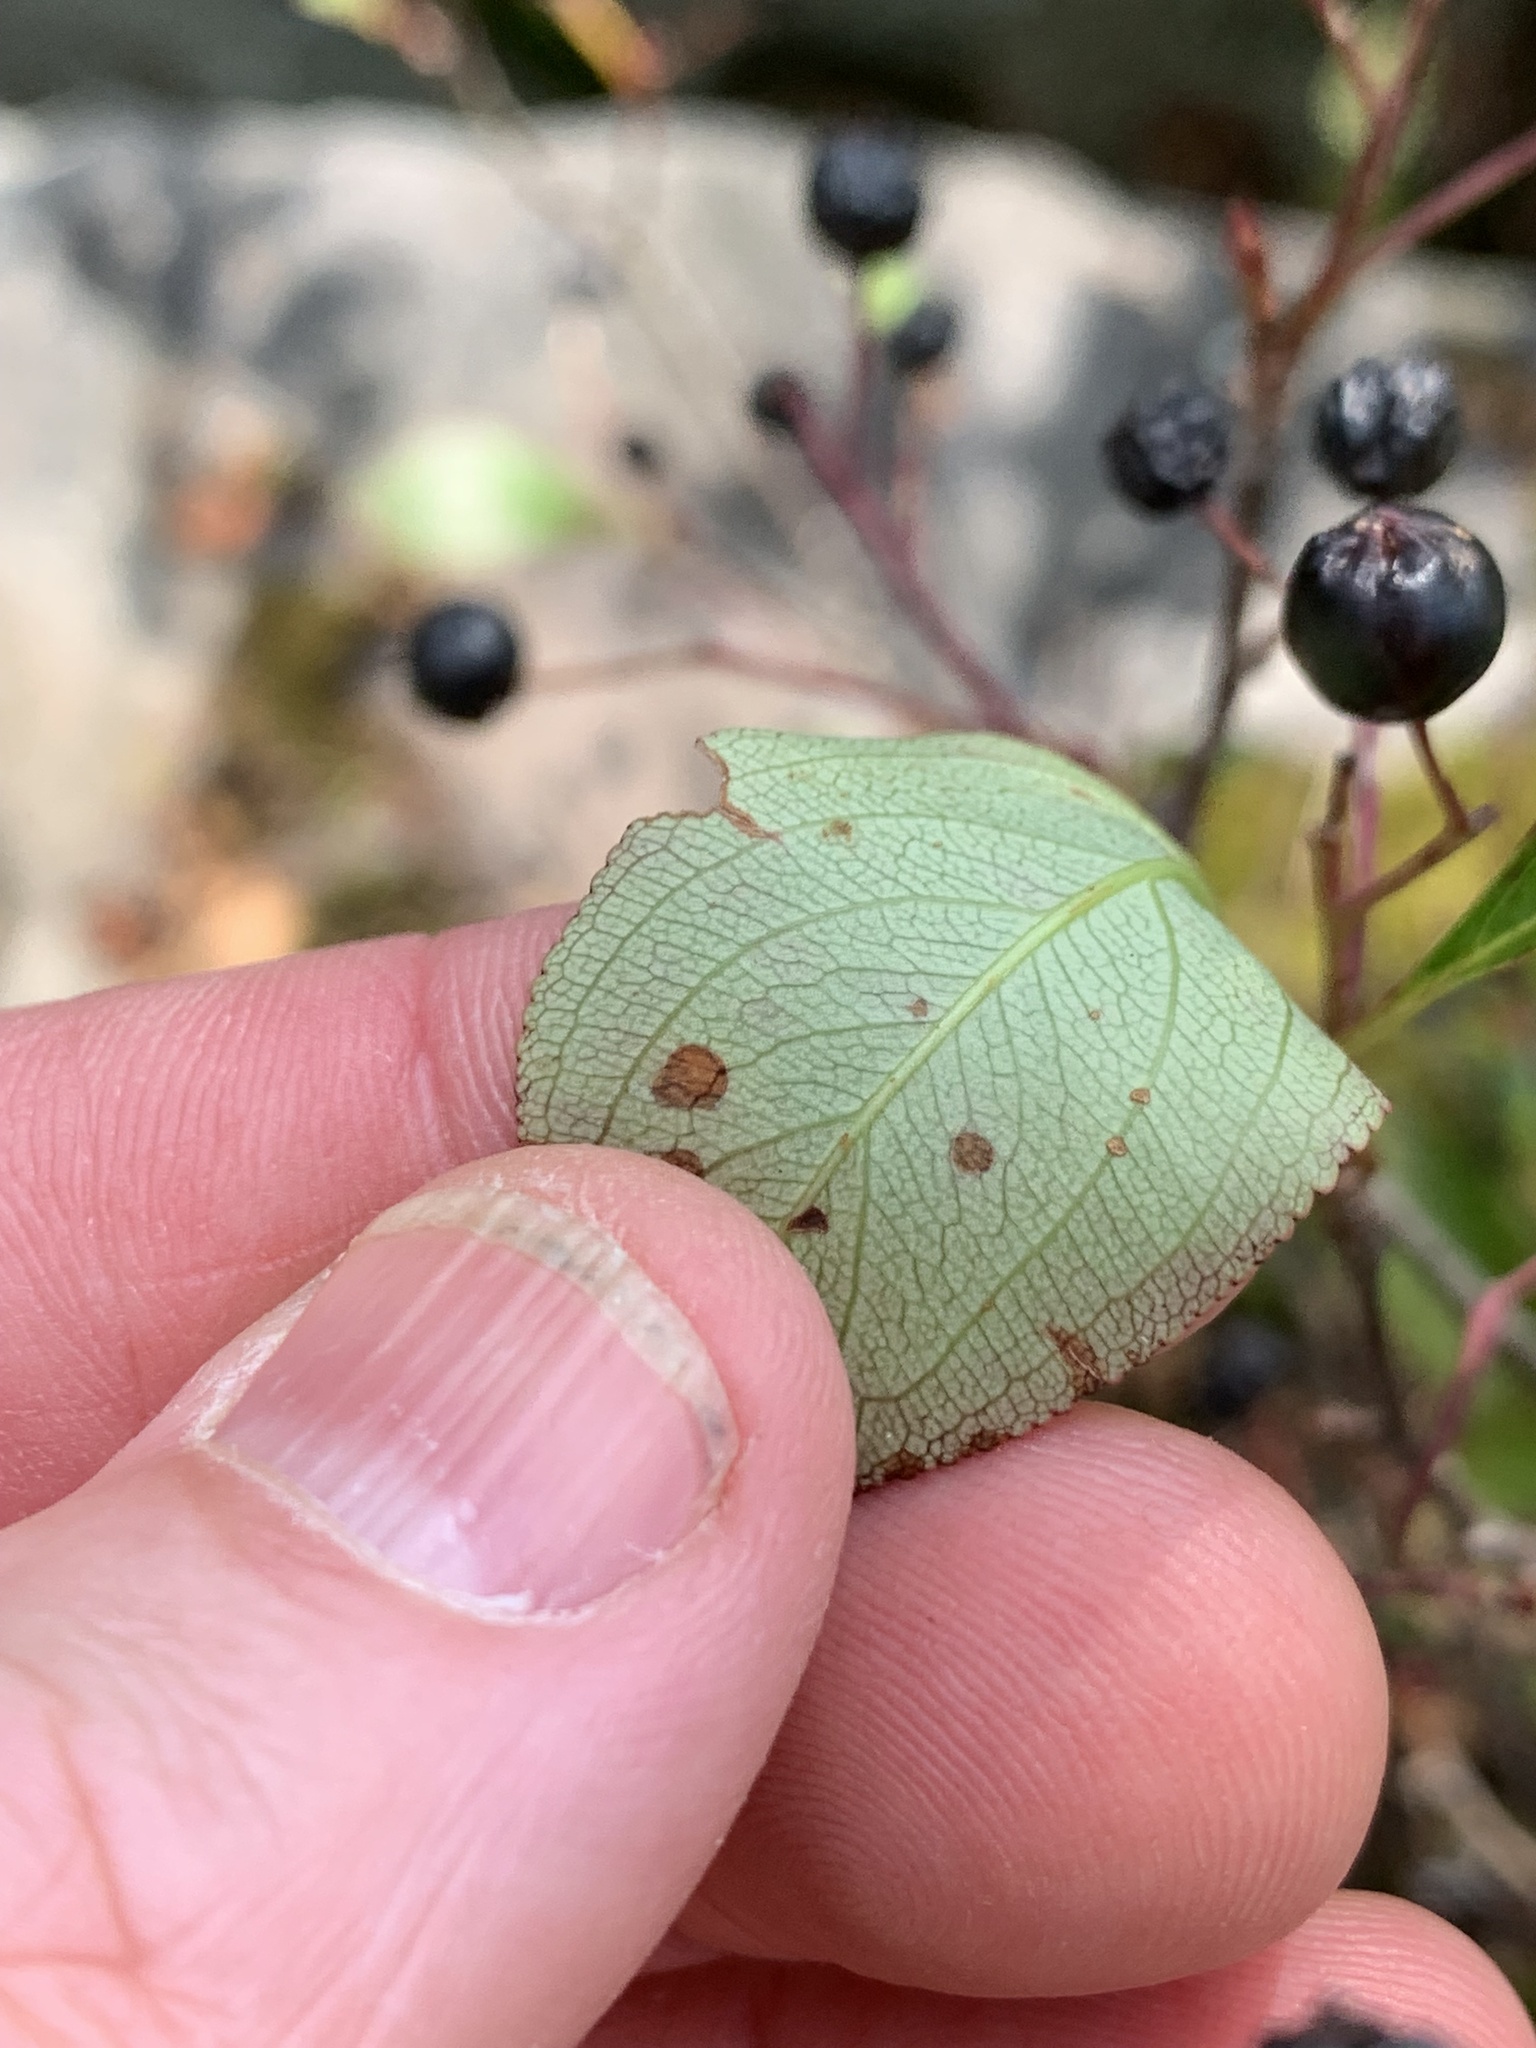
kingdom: Plantae
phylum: Tracheophyta
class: Magnoliopsida
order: Rosales
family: Rosaceae
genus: Aronia
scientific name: Aronia melanocarpa
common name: Black chokeberry
